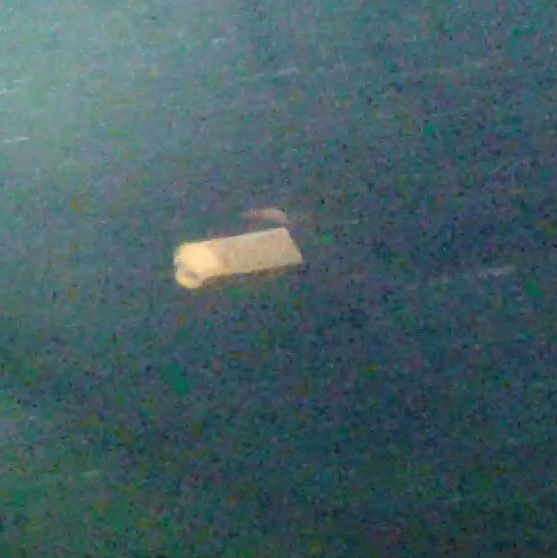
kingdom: Animalia
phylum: Chordata
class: Mammalia
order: Carnivora
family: Otariidae
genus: Zalophus
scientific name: Zalophus californianus
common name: California sea lion
